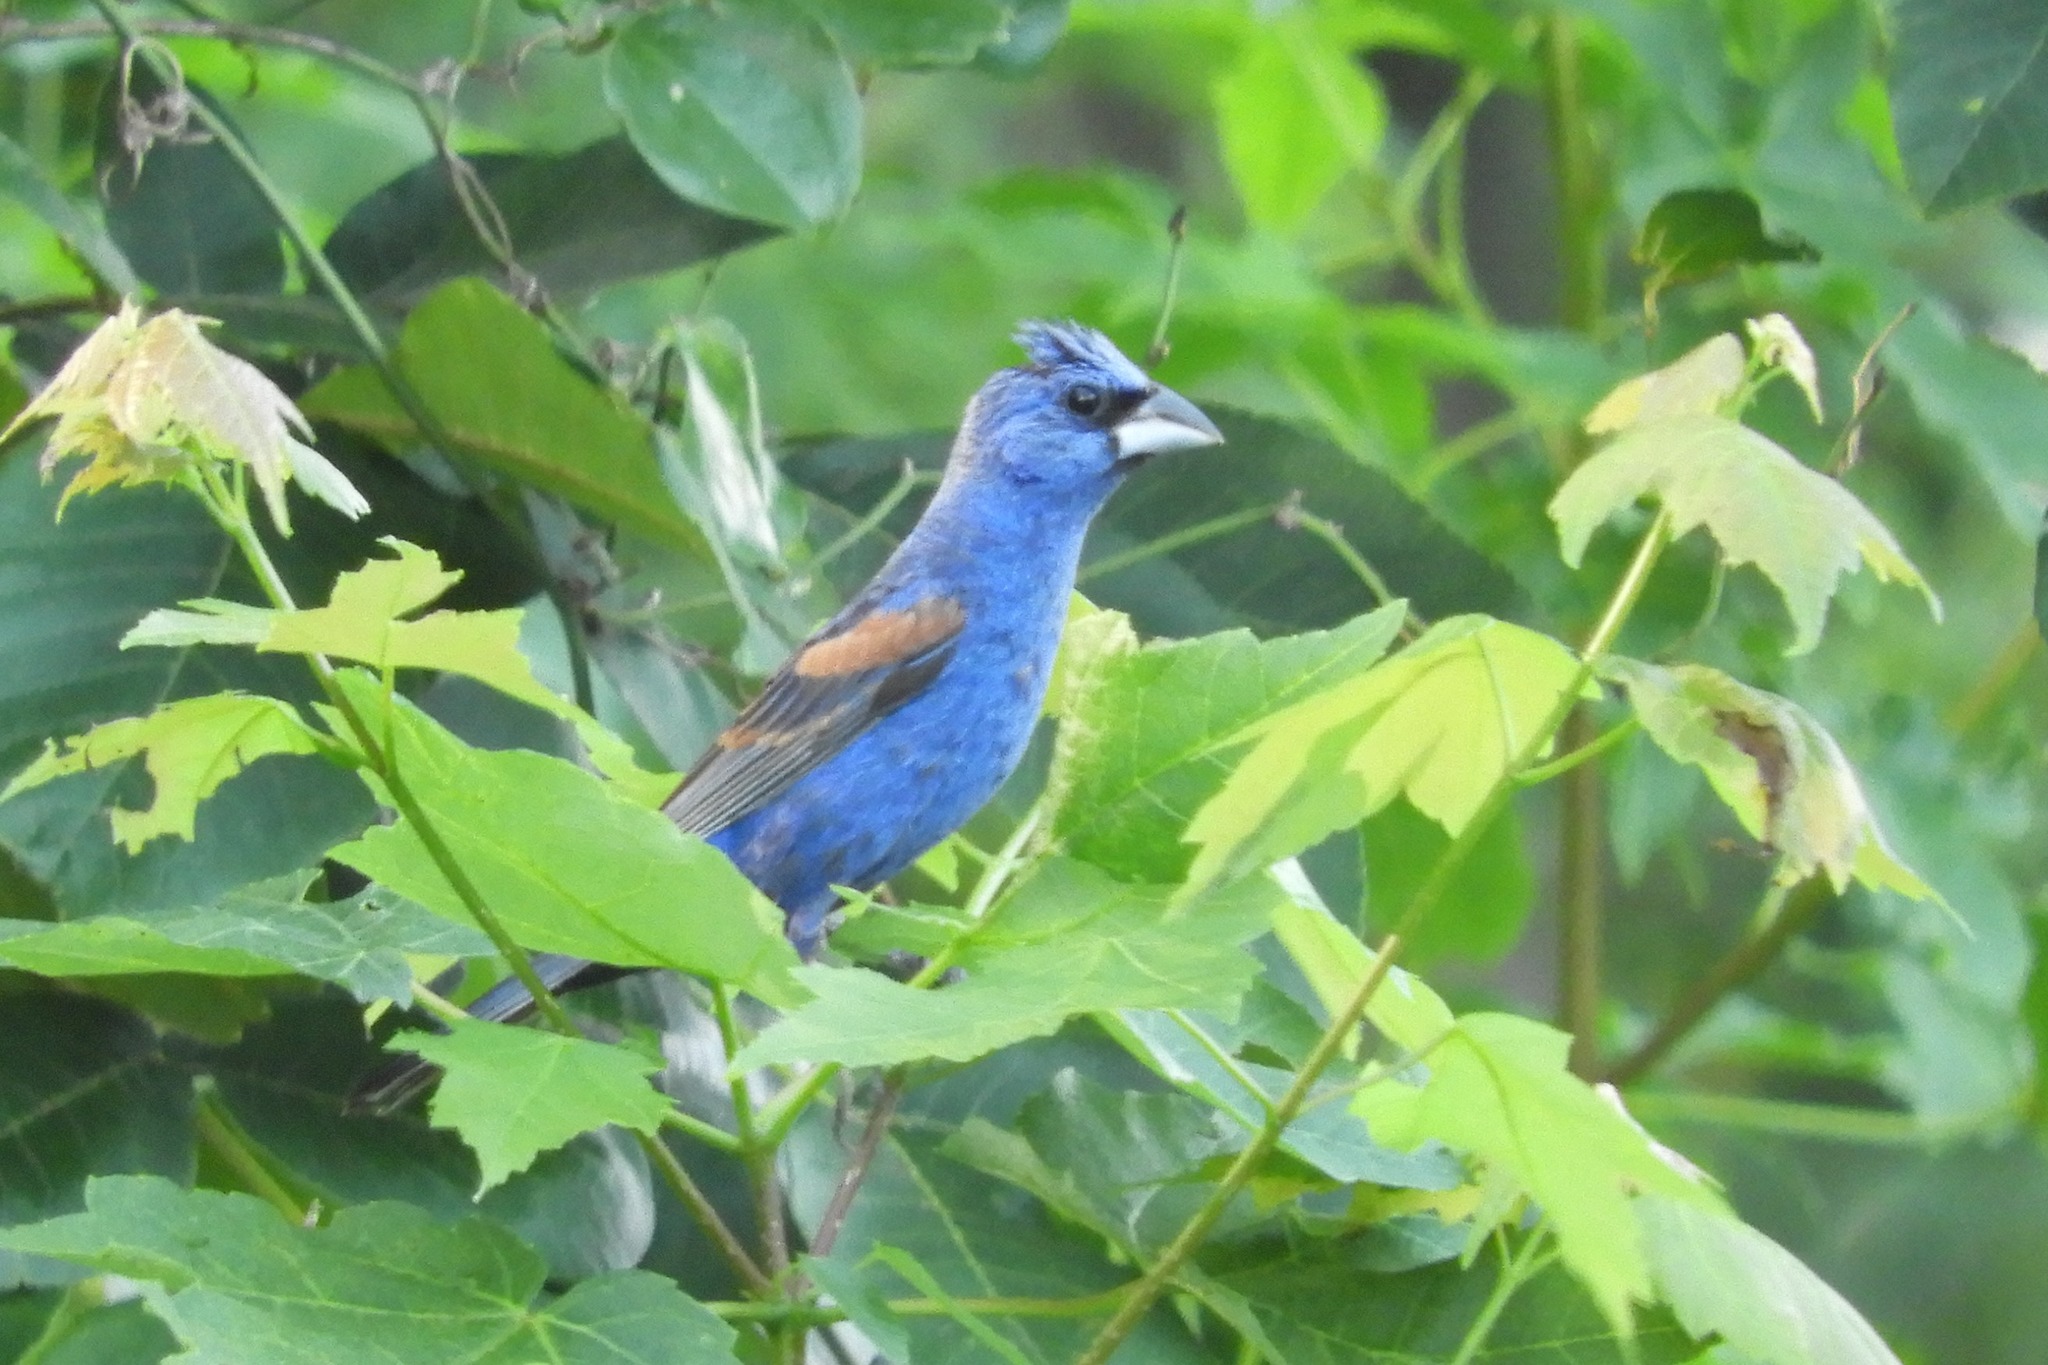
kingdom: Animalia
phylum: Chordata
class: Aves
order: Passeriformes
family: Cardinalidae
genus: Passerina
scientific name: Passerina caerulea
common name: Blue grosbeak
